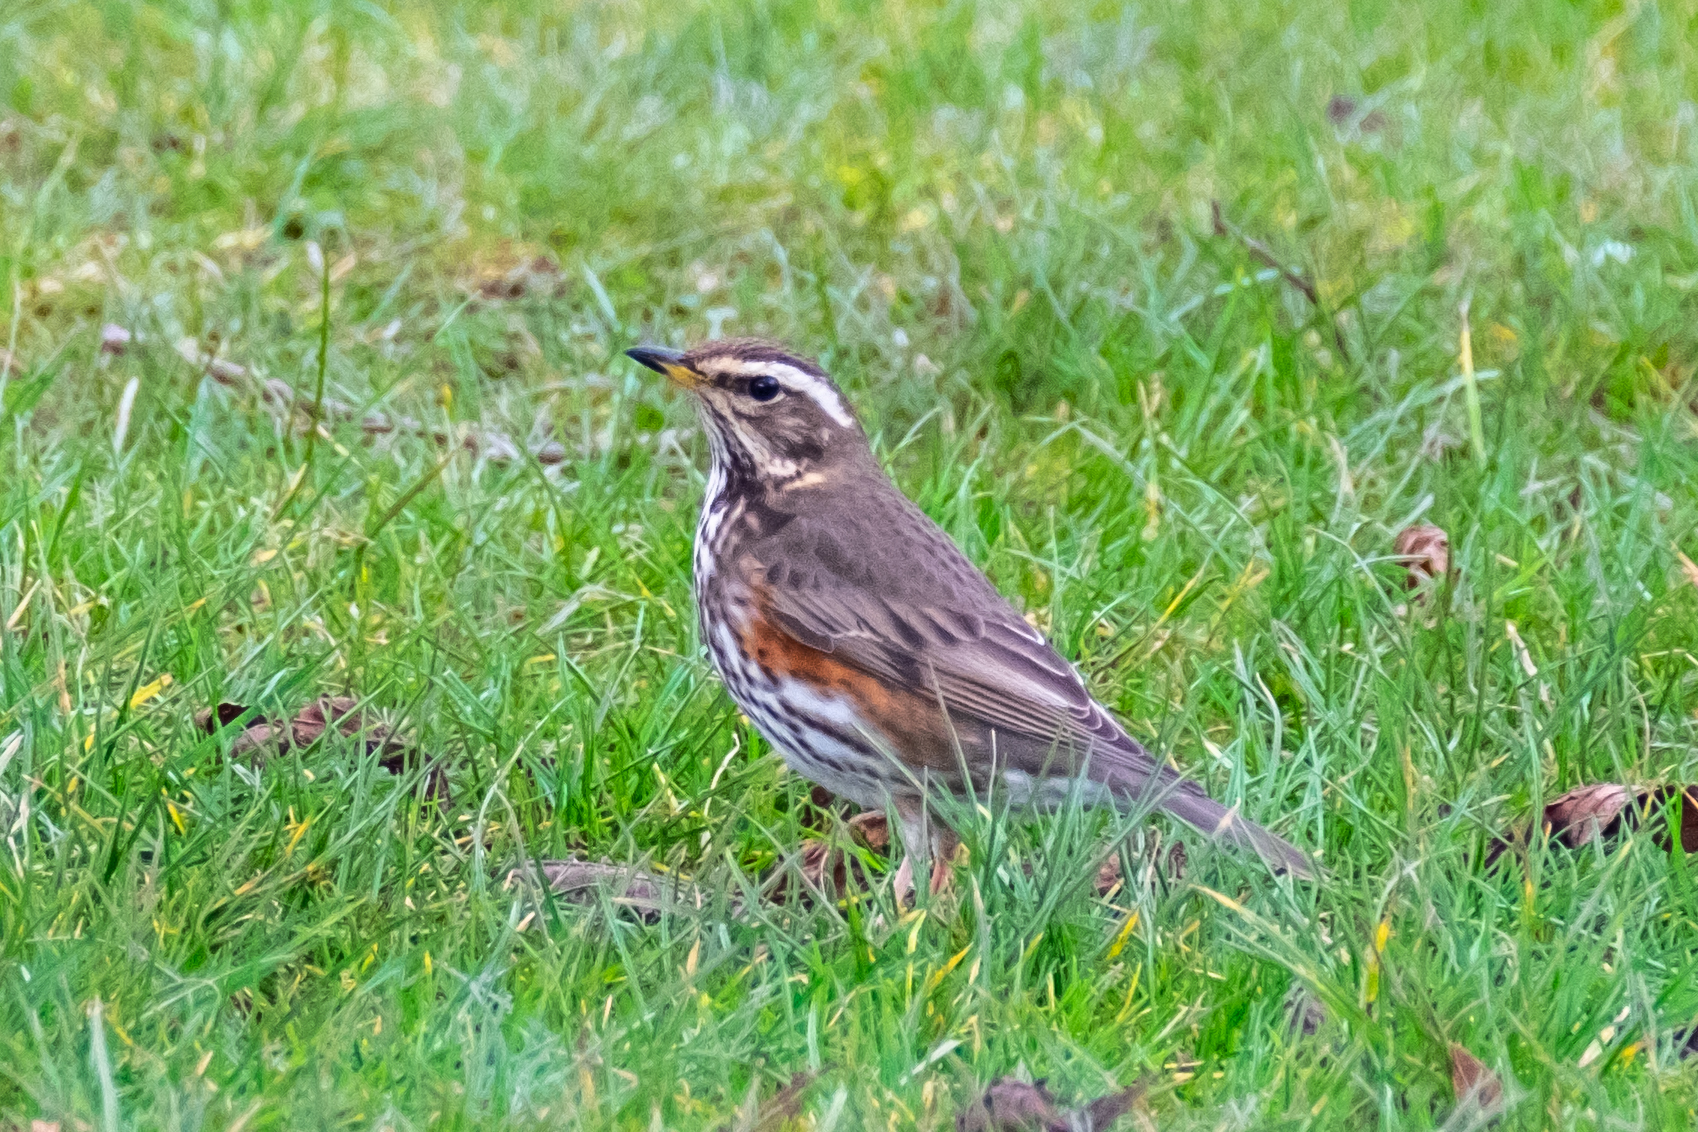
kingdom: Animalia
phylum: Chordata
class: Aves
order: Passeriformes
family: Turdidae
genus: Turdus
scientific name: Turdus iliacus
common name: Redwing
